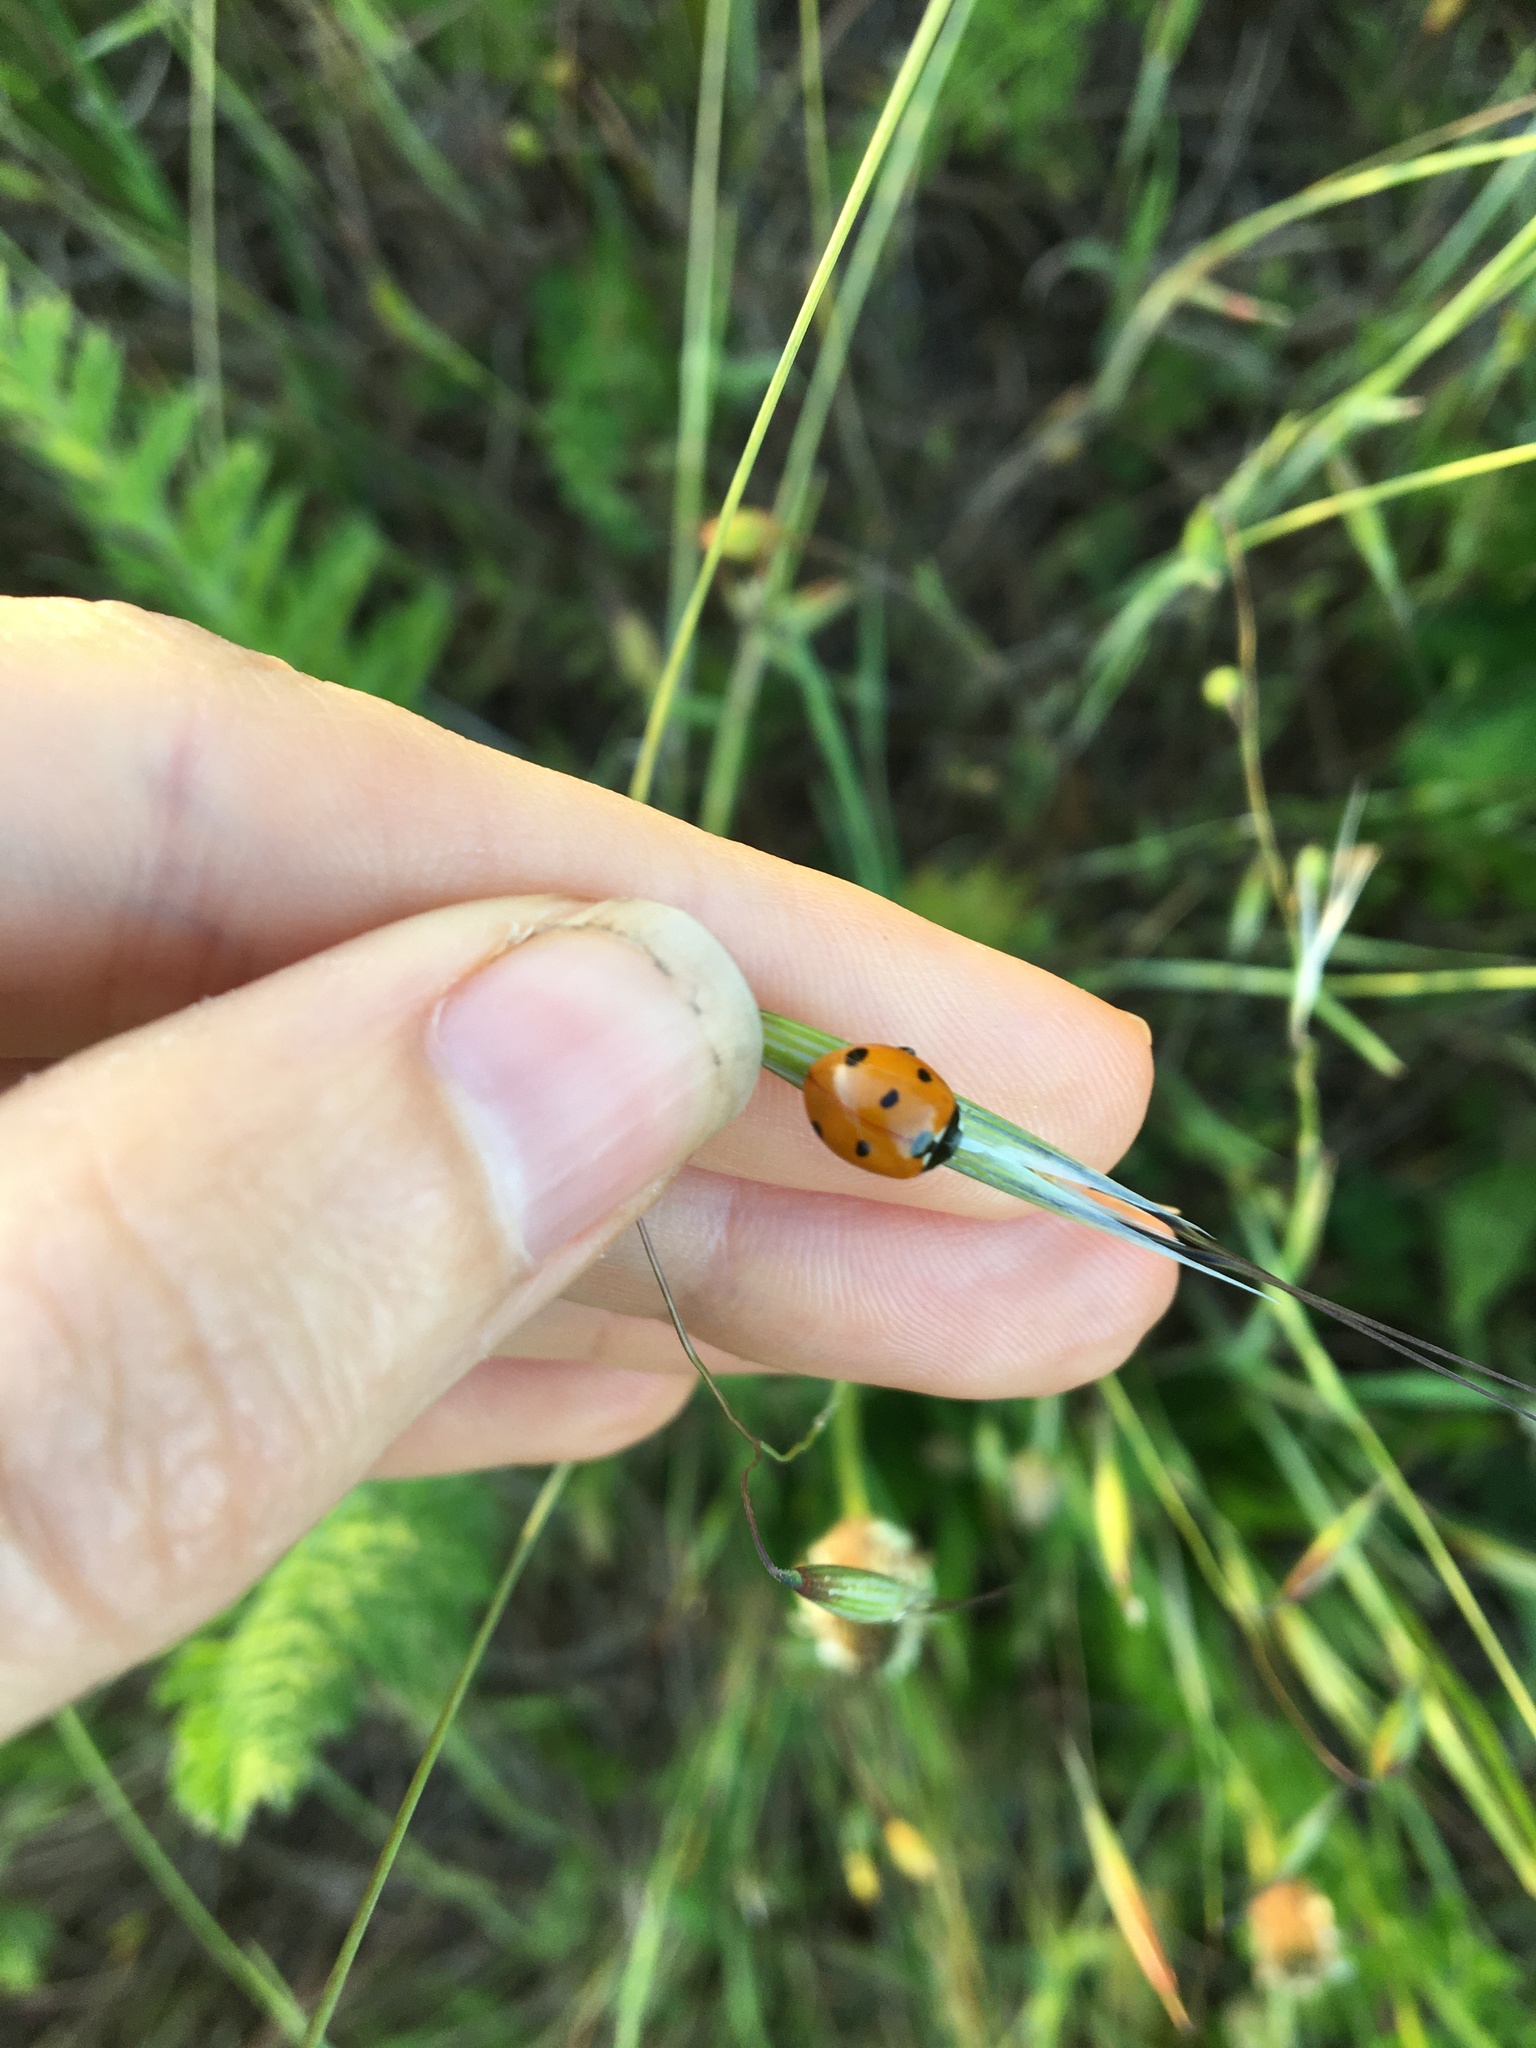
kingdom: Animalia
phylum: Arthropoda
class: Insecta
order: Coleoptera
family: Coccinellidae
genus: Coccinella
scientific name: Coccinella septempunctata
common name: Sevenspotted lady beetle
